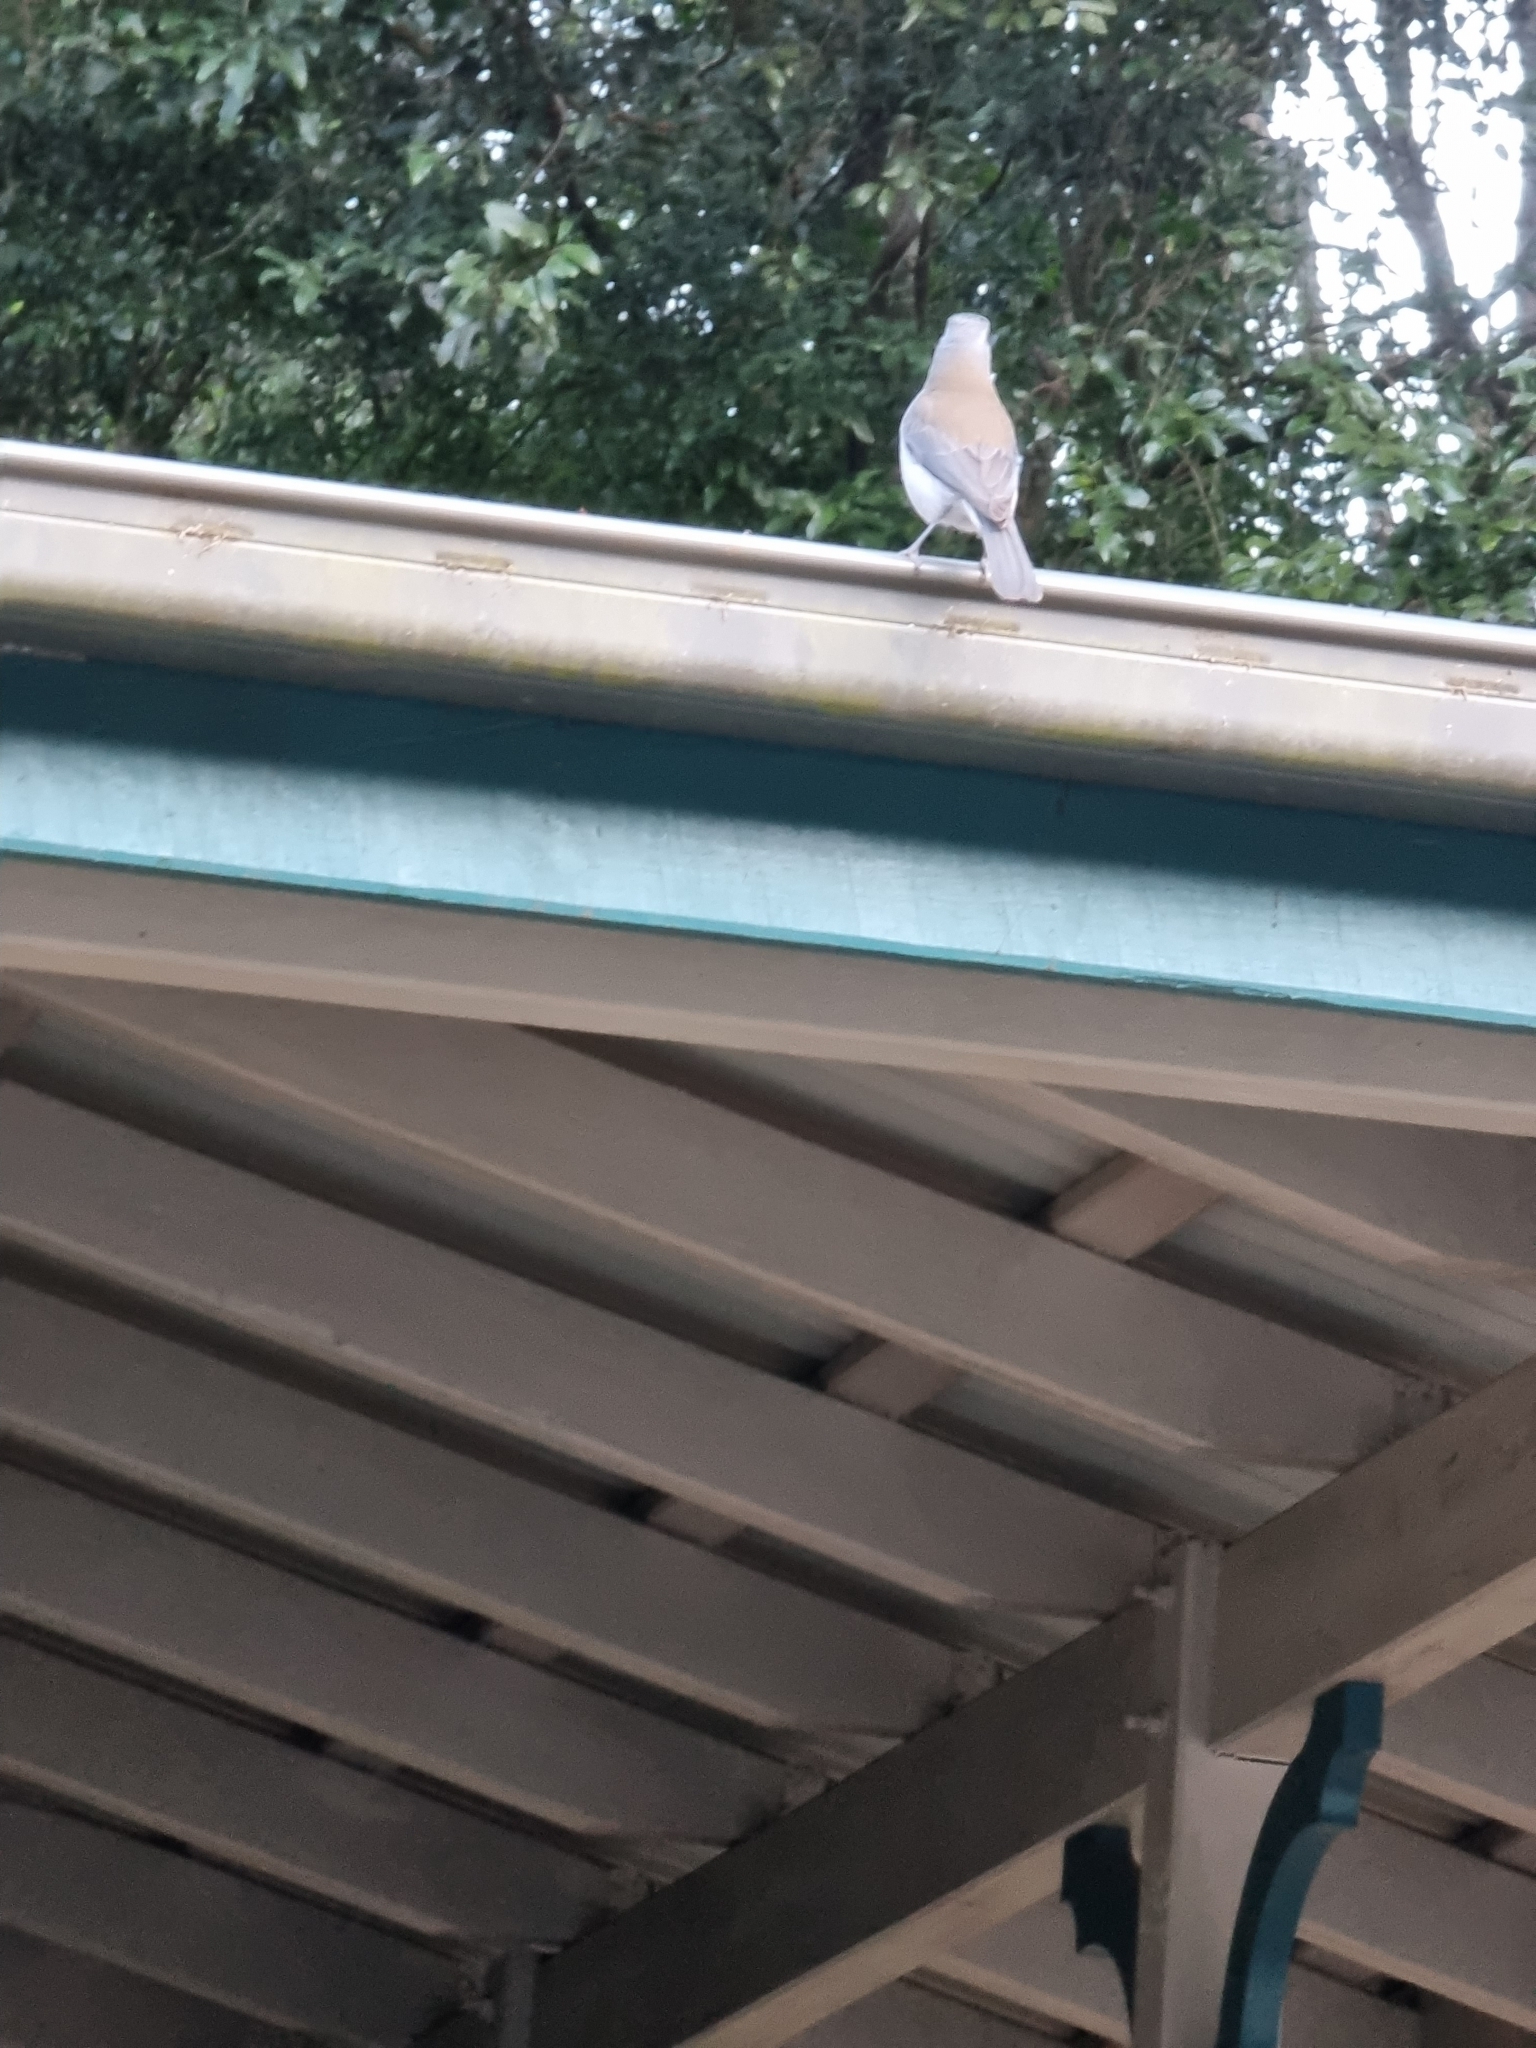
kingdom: Animalia
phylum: Chordata
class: Aves
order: Passeriformes
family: Pachycephalidae
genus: Colluricincla
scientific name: Colluricincla harmonica
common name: Grey shrikethrush
